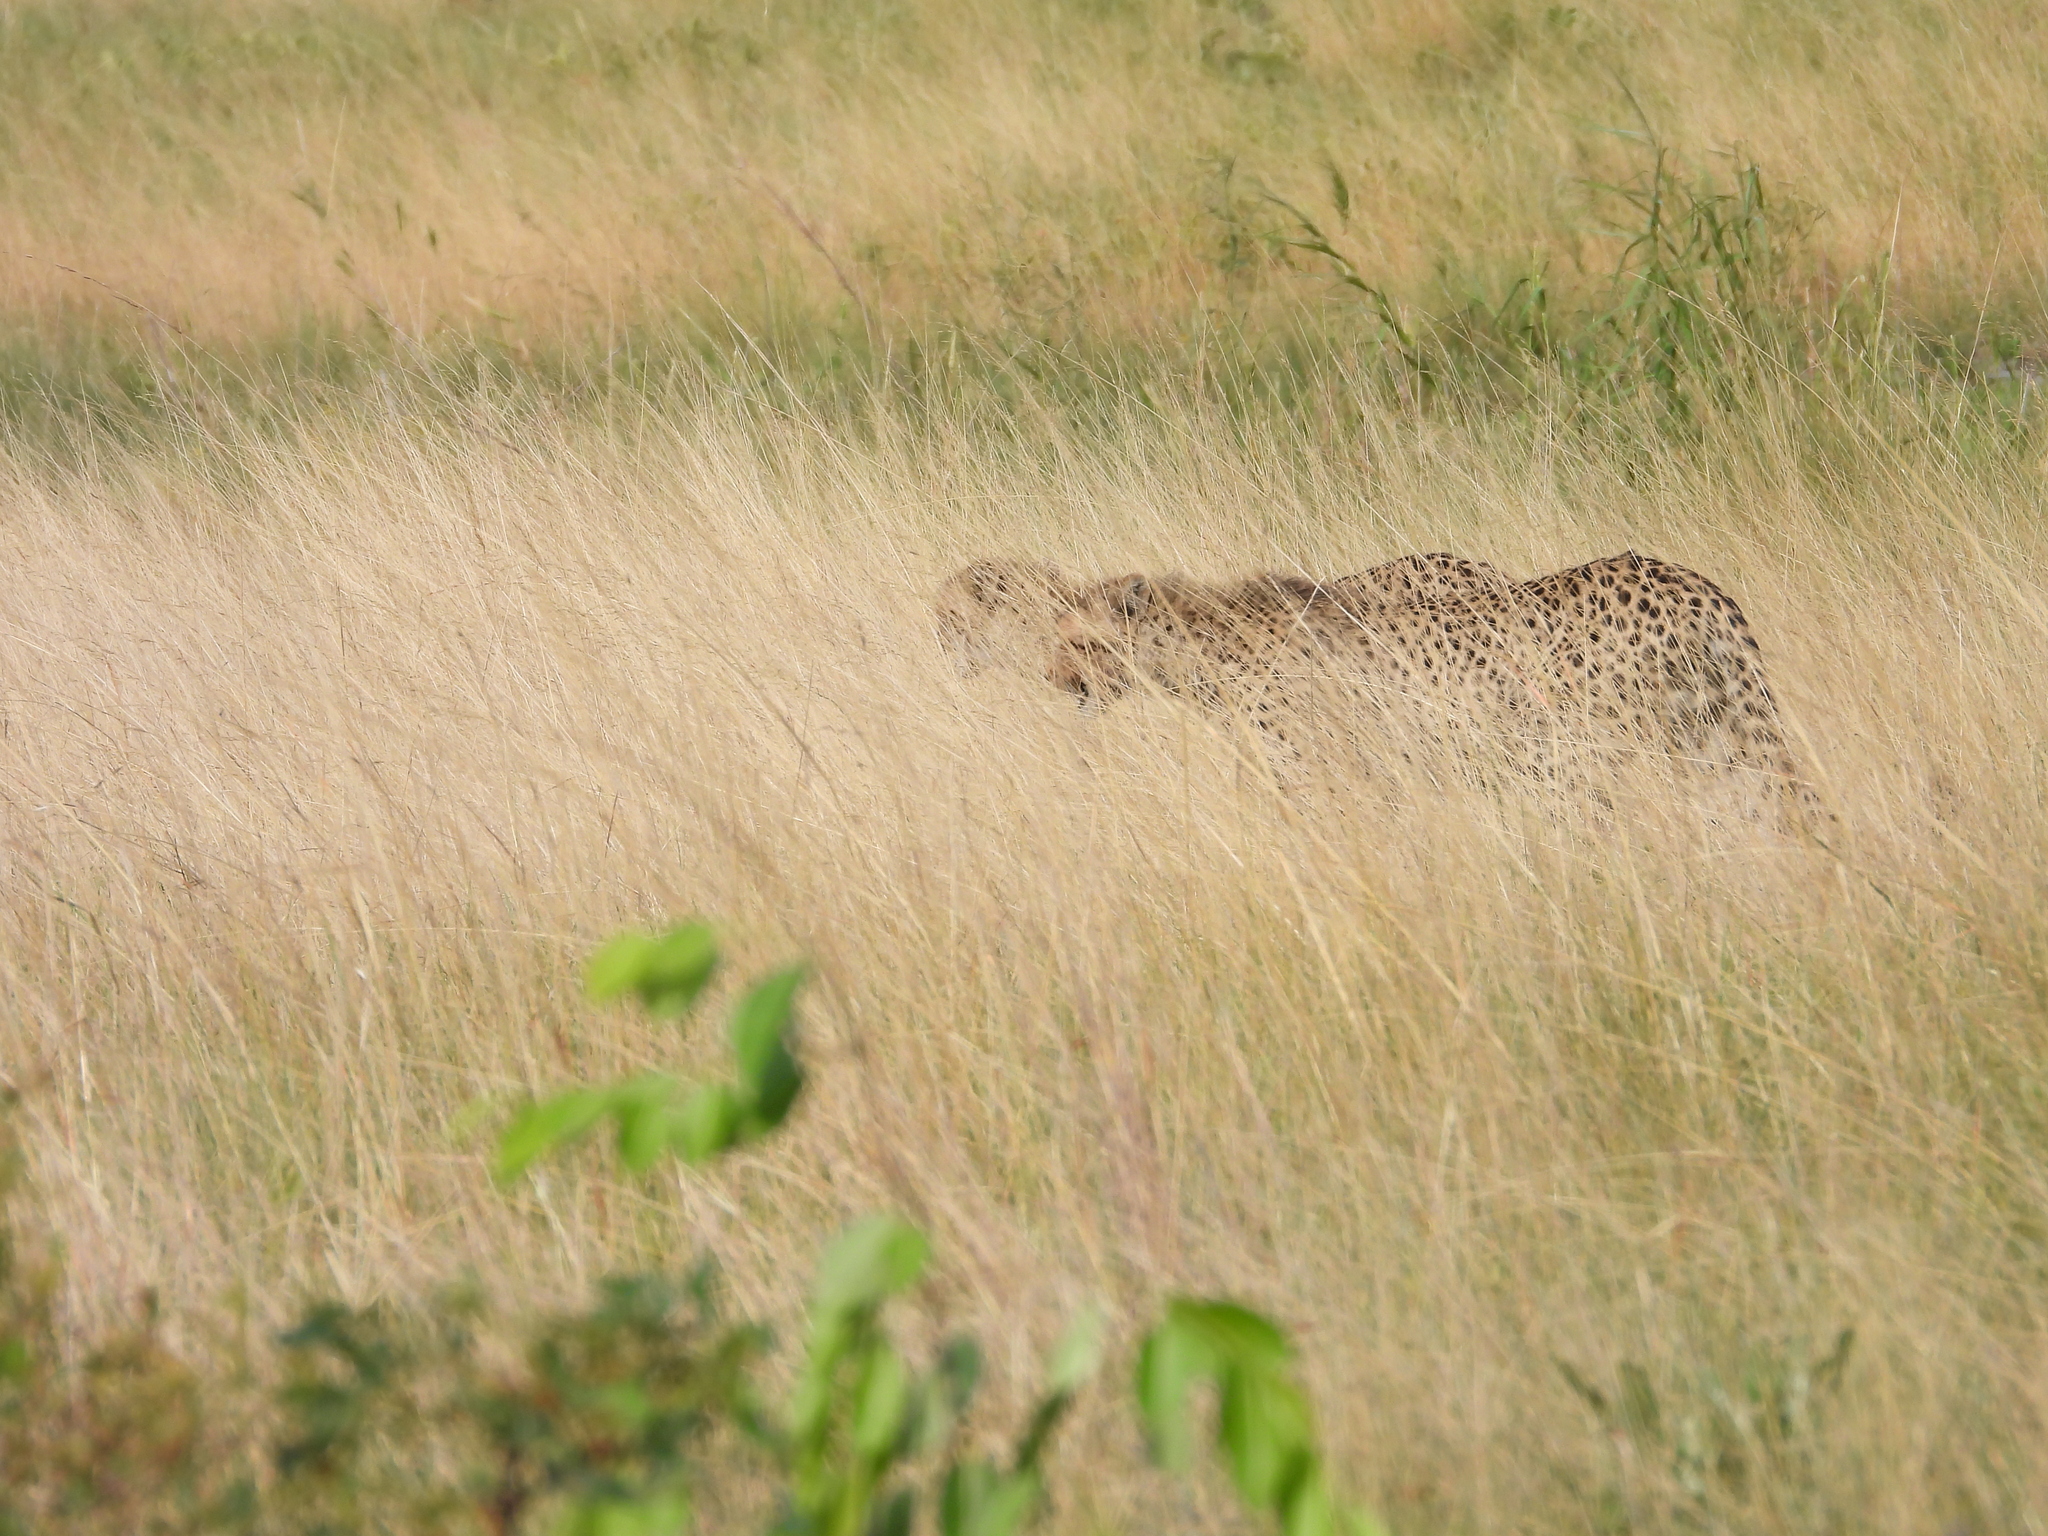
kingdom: Animalia
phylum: Chordata
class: Mammalia
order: Carnivora
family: Felidae
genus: Acinonyx
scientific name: Acinonyx jubatus
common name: Cheetah
